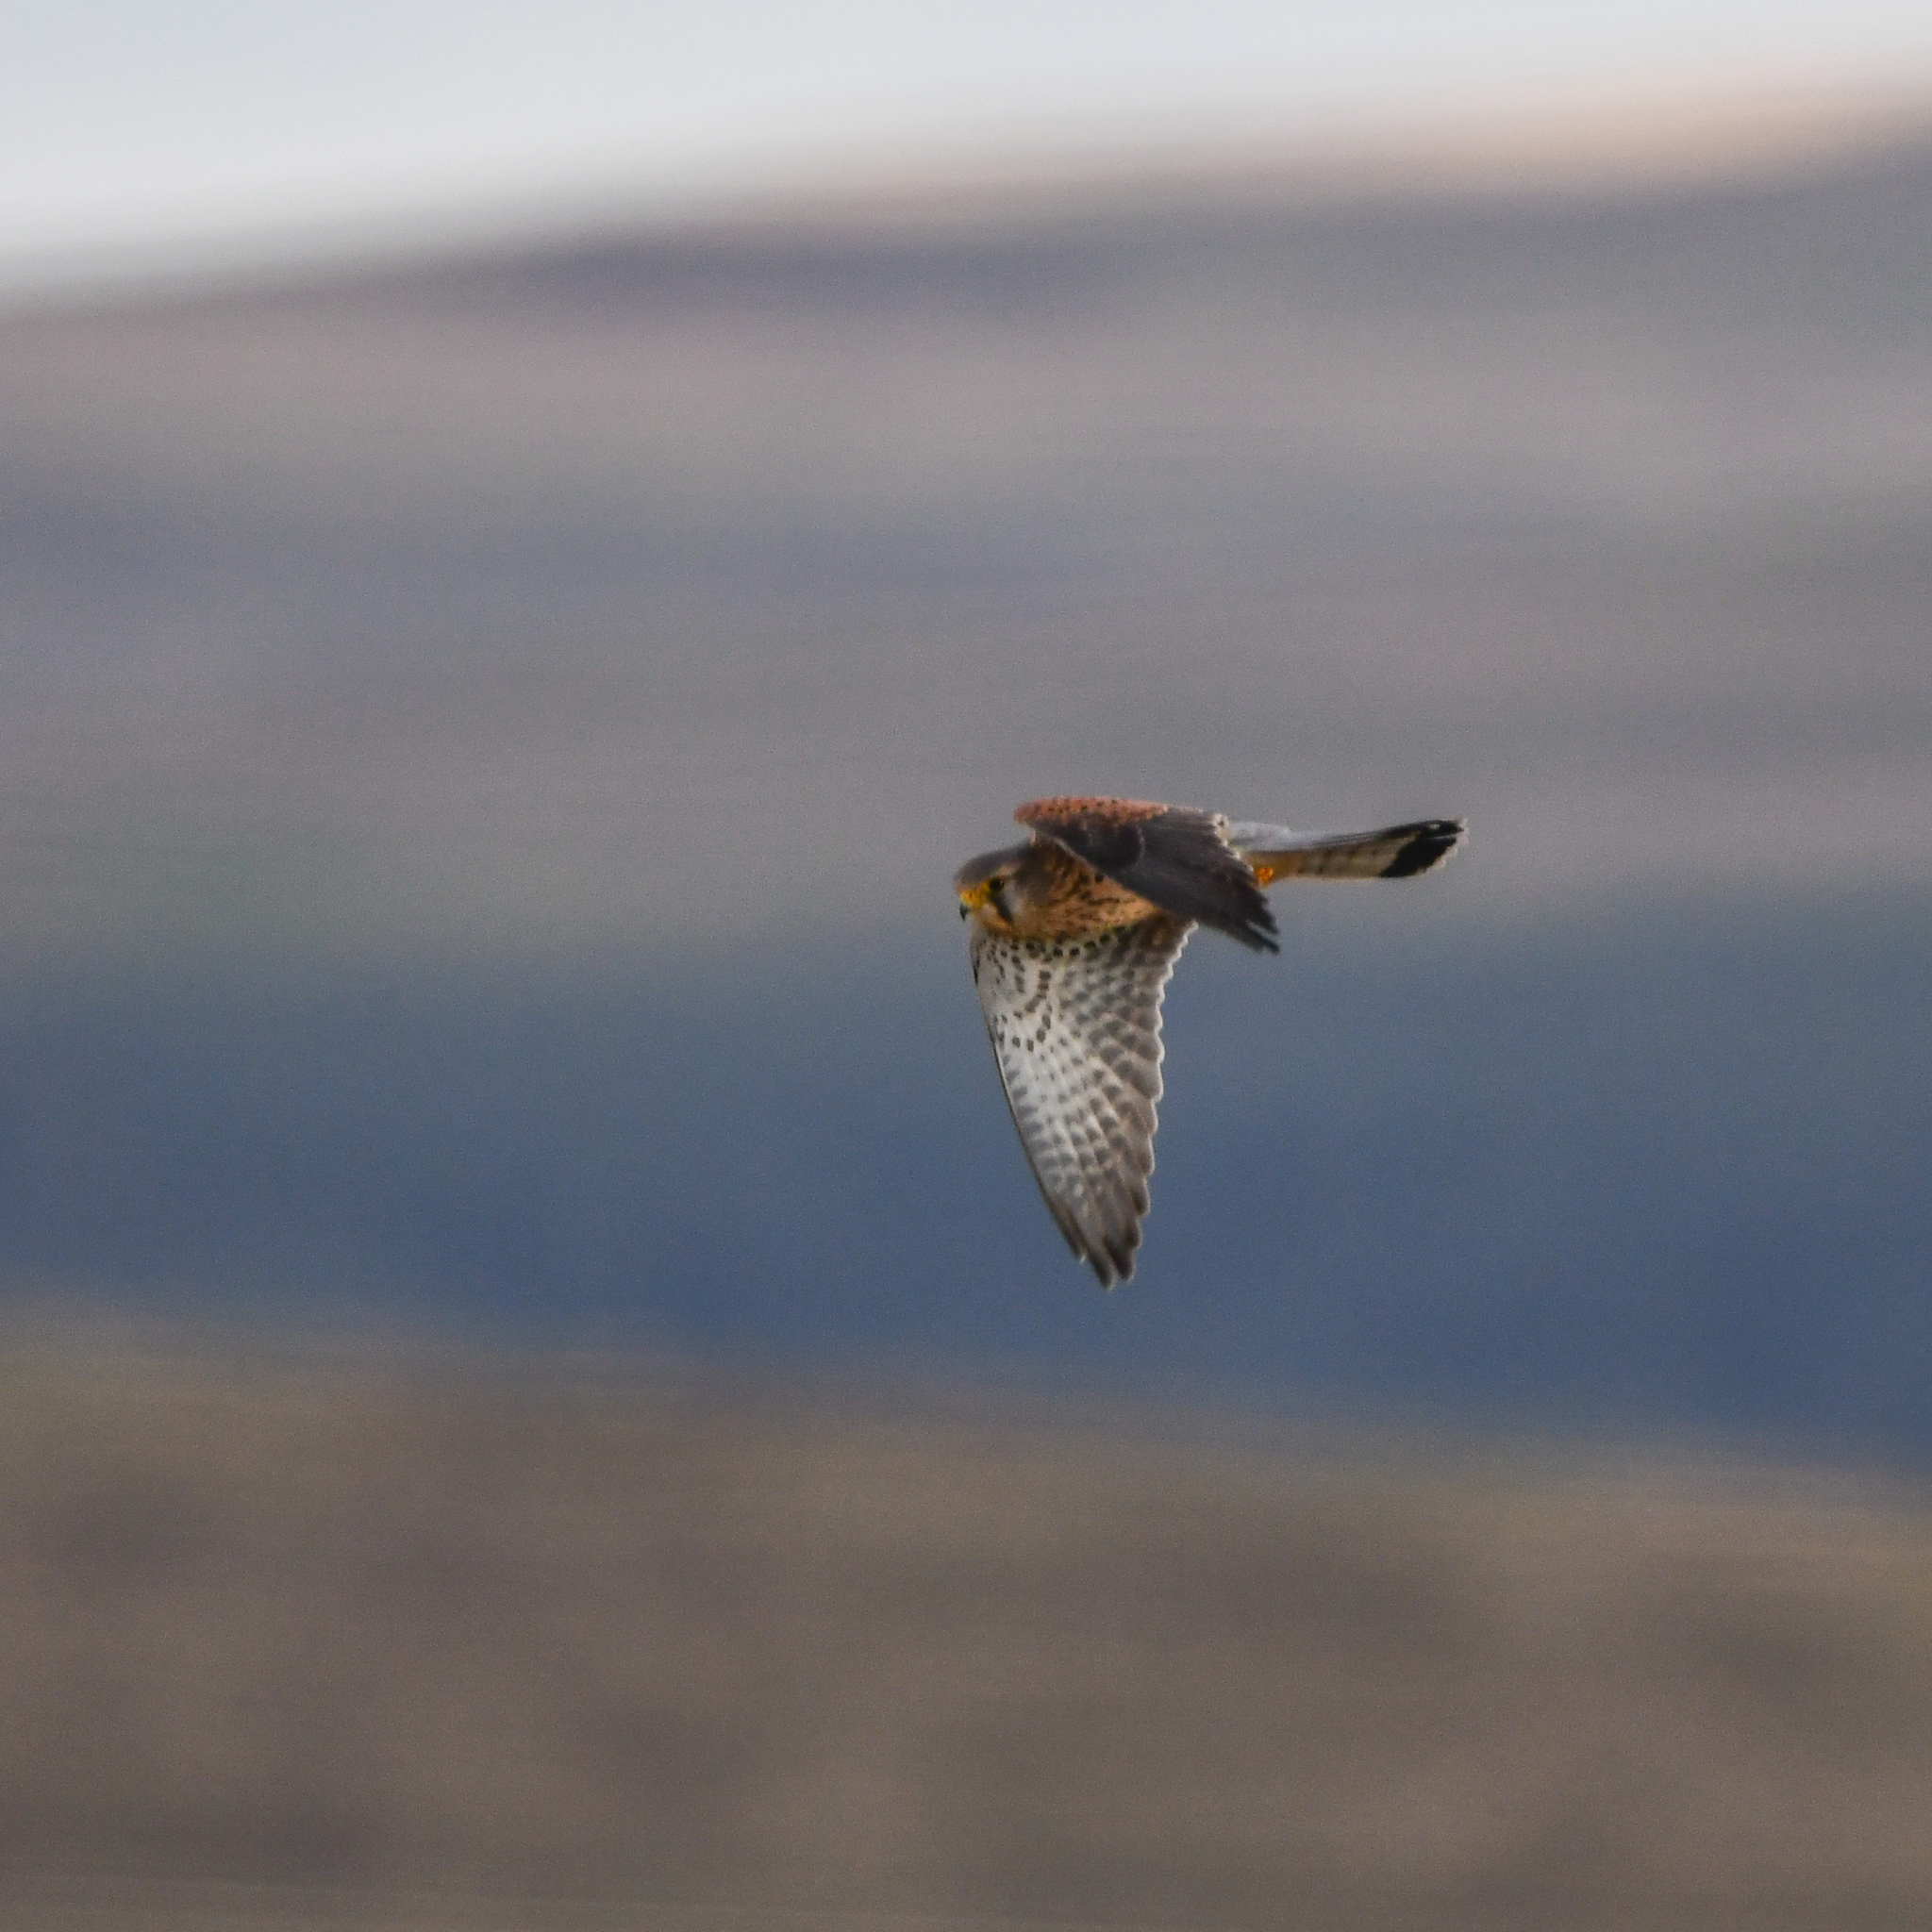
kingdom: Animalia
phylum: Chordata
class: Aves
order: Falconiformes
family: Falconidae
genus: Falco
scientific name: Falco tinnunculus
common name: Common kestrel
